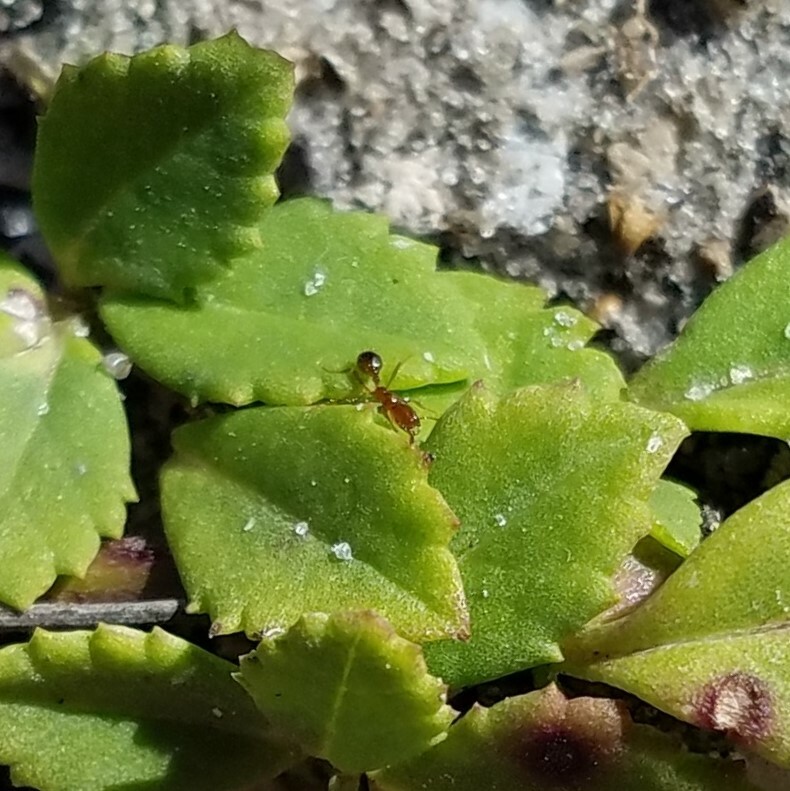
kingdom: Animalia
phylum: Arthropoda
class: Insecta
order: Hymenoptera
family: Formicidae
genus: Solenopsis
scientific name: Solenopsis invicta
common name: Red imported fire ant
